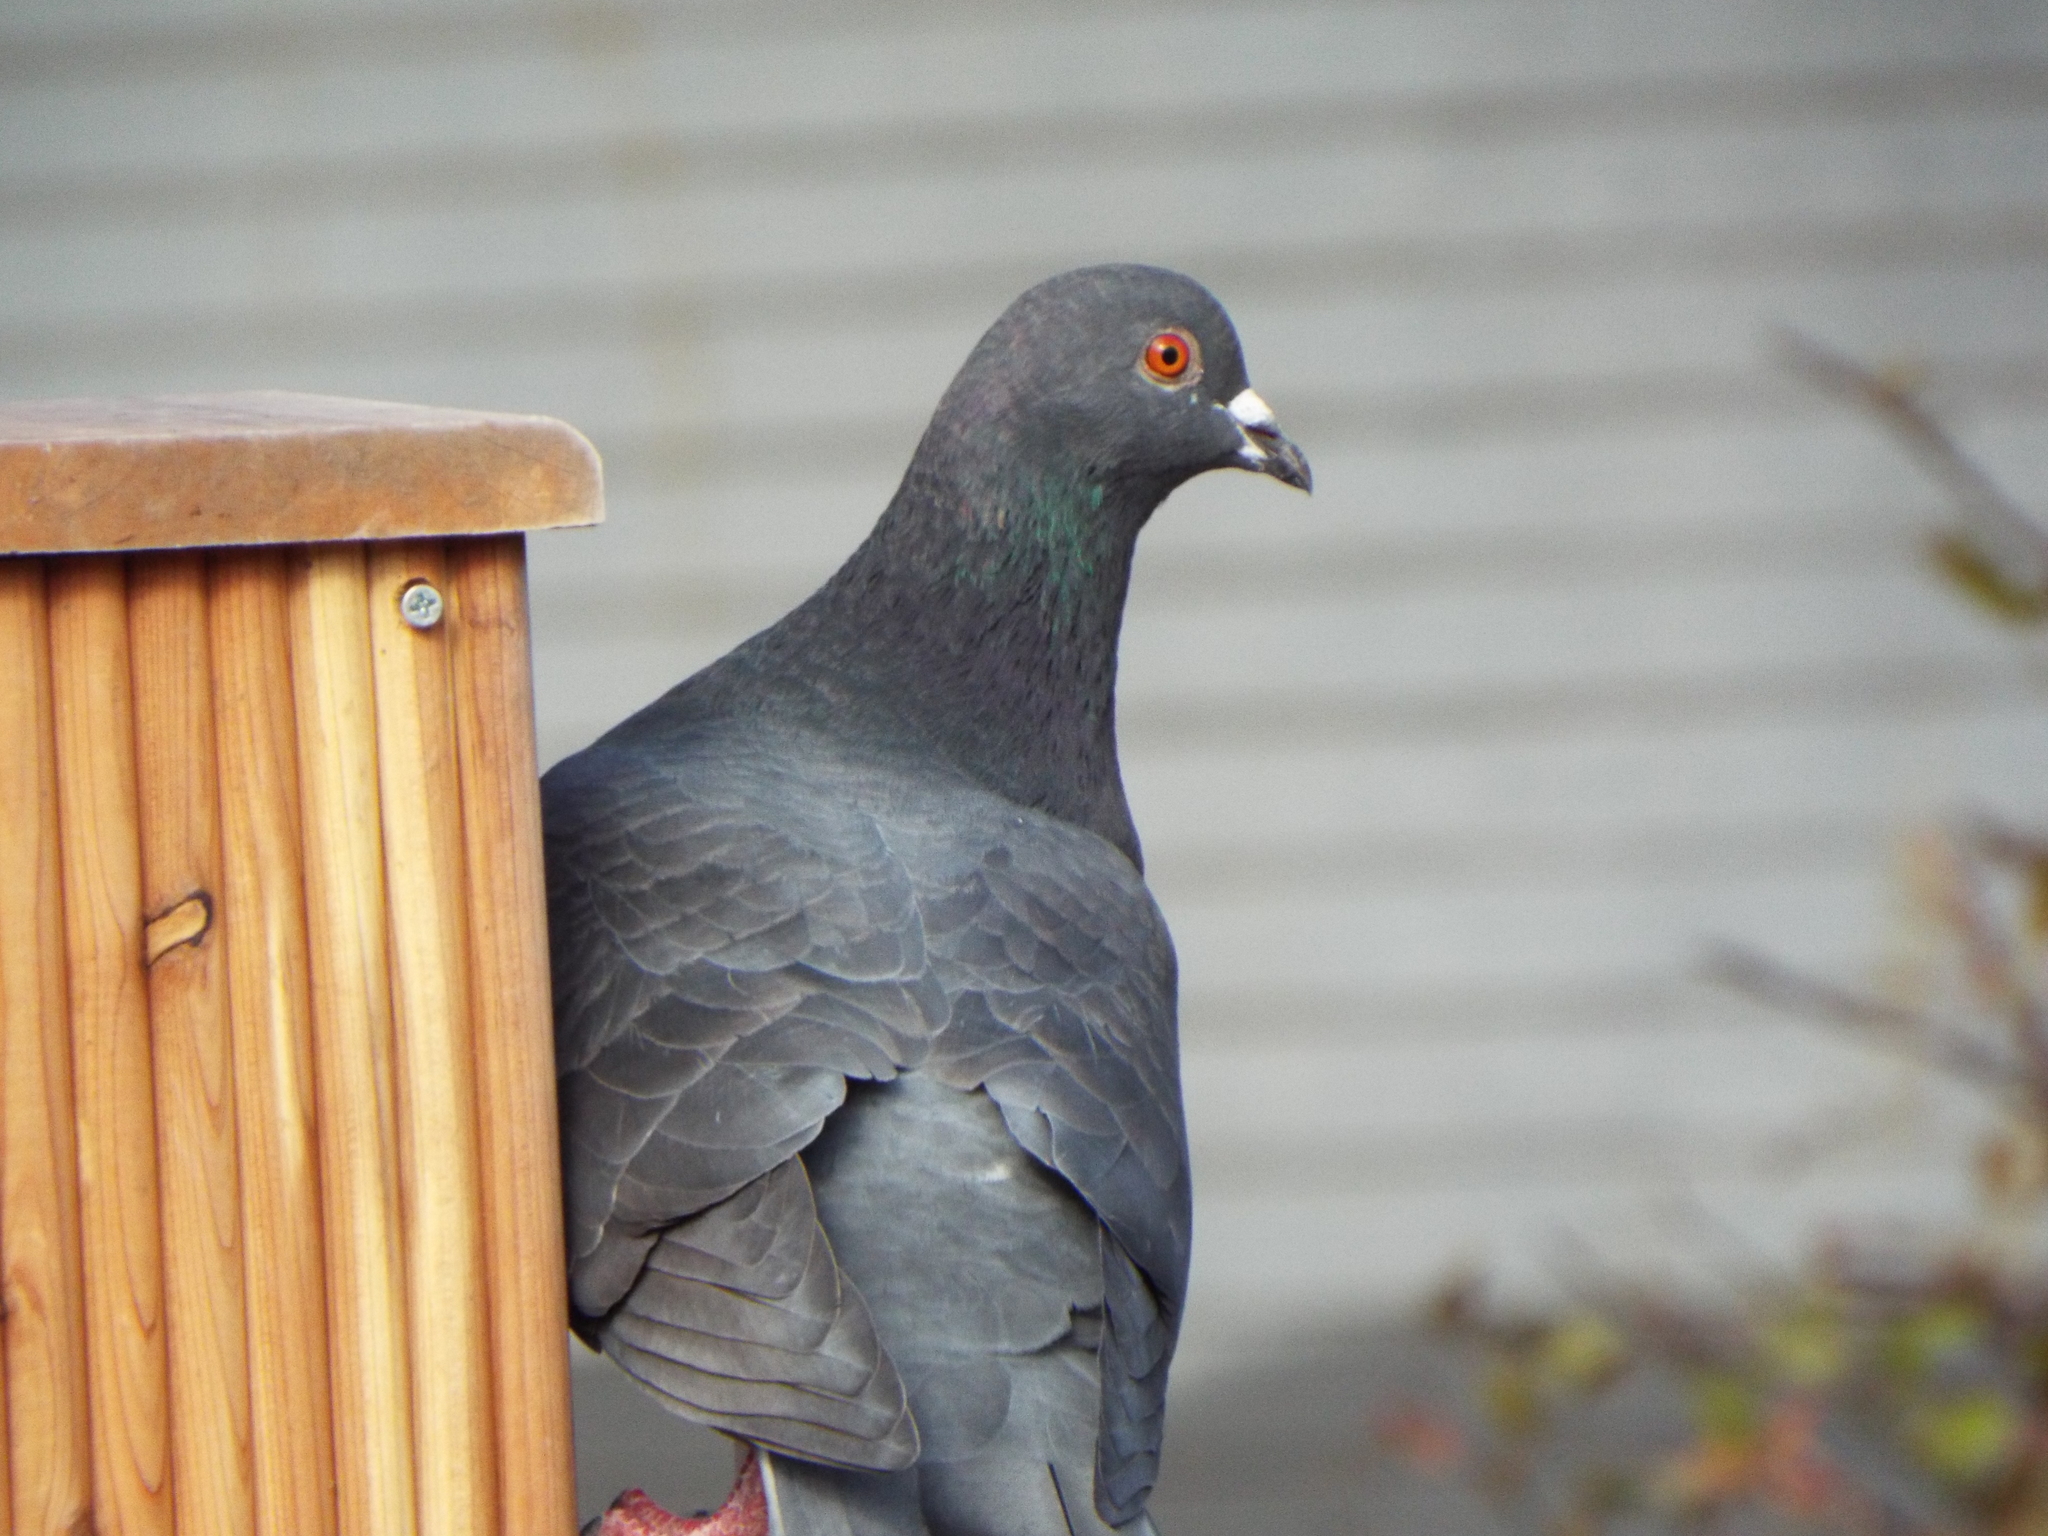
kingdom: Animalia
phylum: Chordata
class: Aves
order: Columbiformes
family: Columbidae
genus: Columba
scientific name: Columba livia
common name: Rock pigeon
